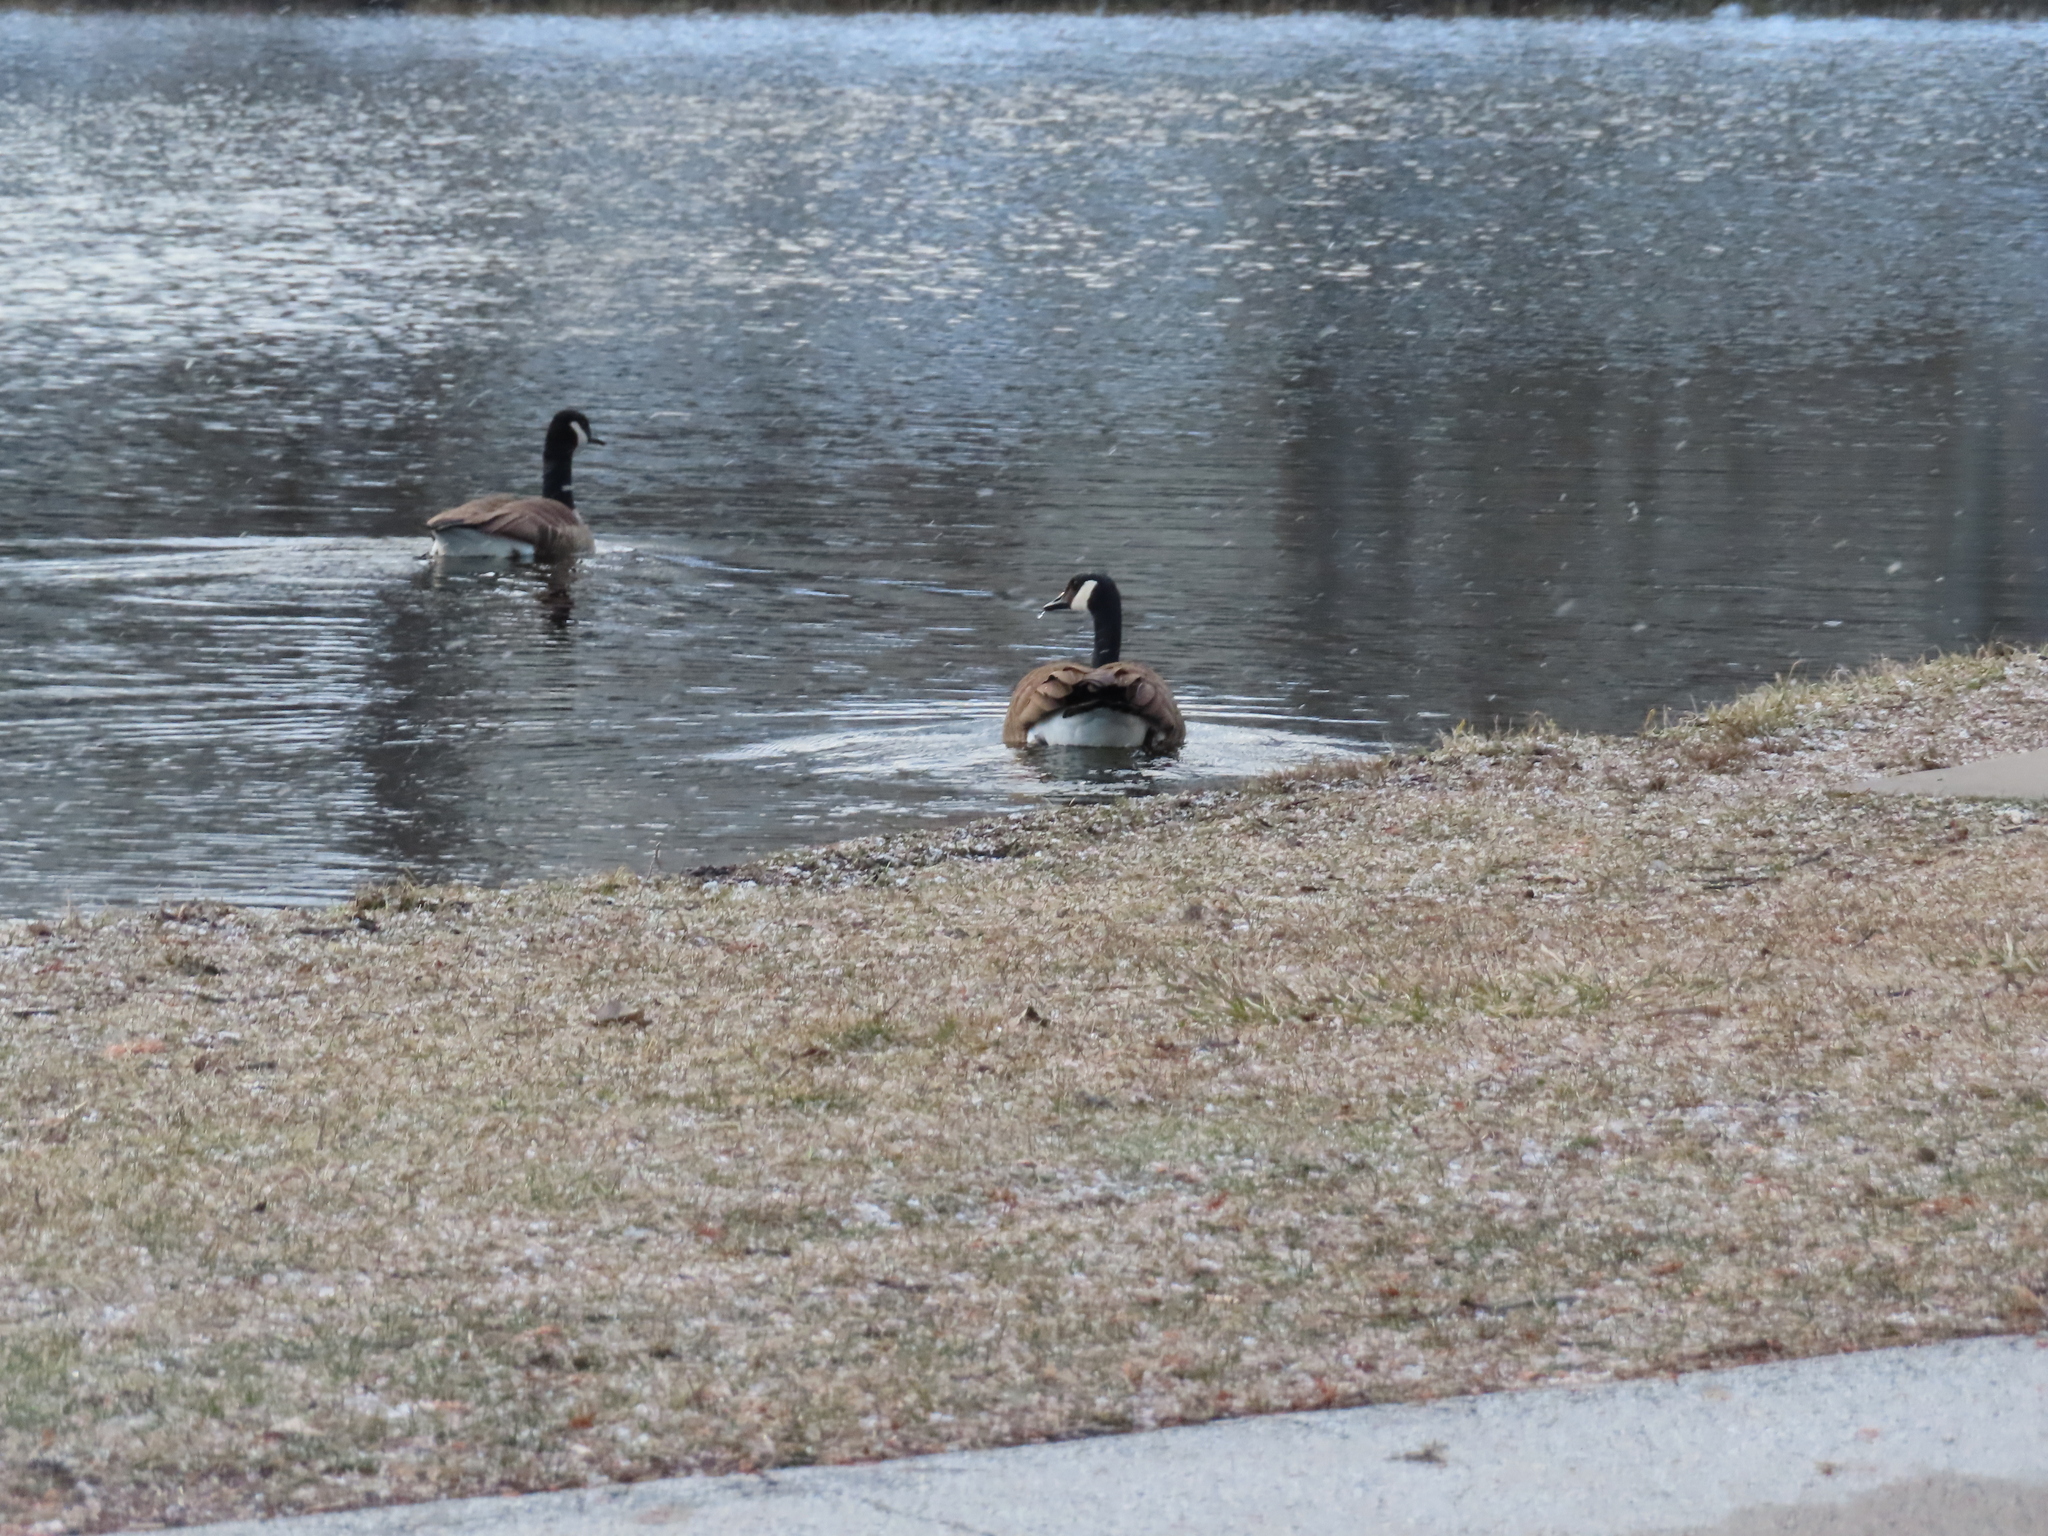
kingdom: Animalia
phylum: Chordata
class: Aves
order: Anseriformes
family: Anatidae
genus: Branta
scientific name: Branta canadensis
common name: Canada goose
